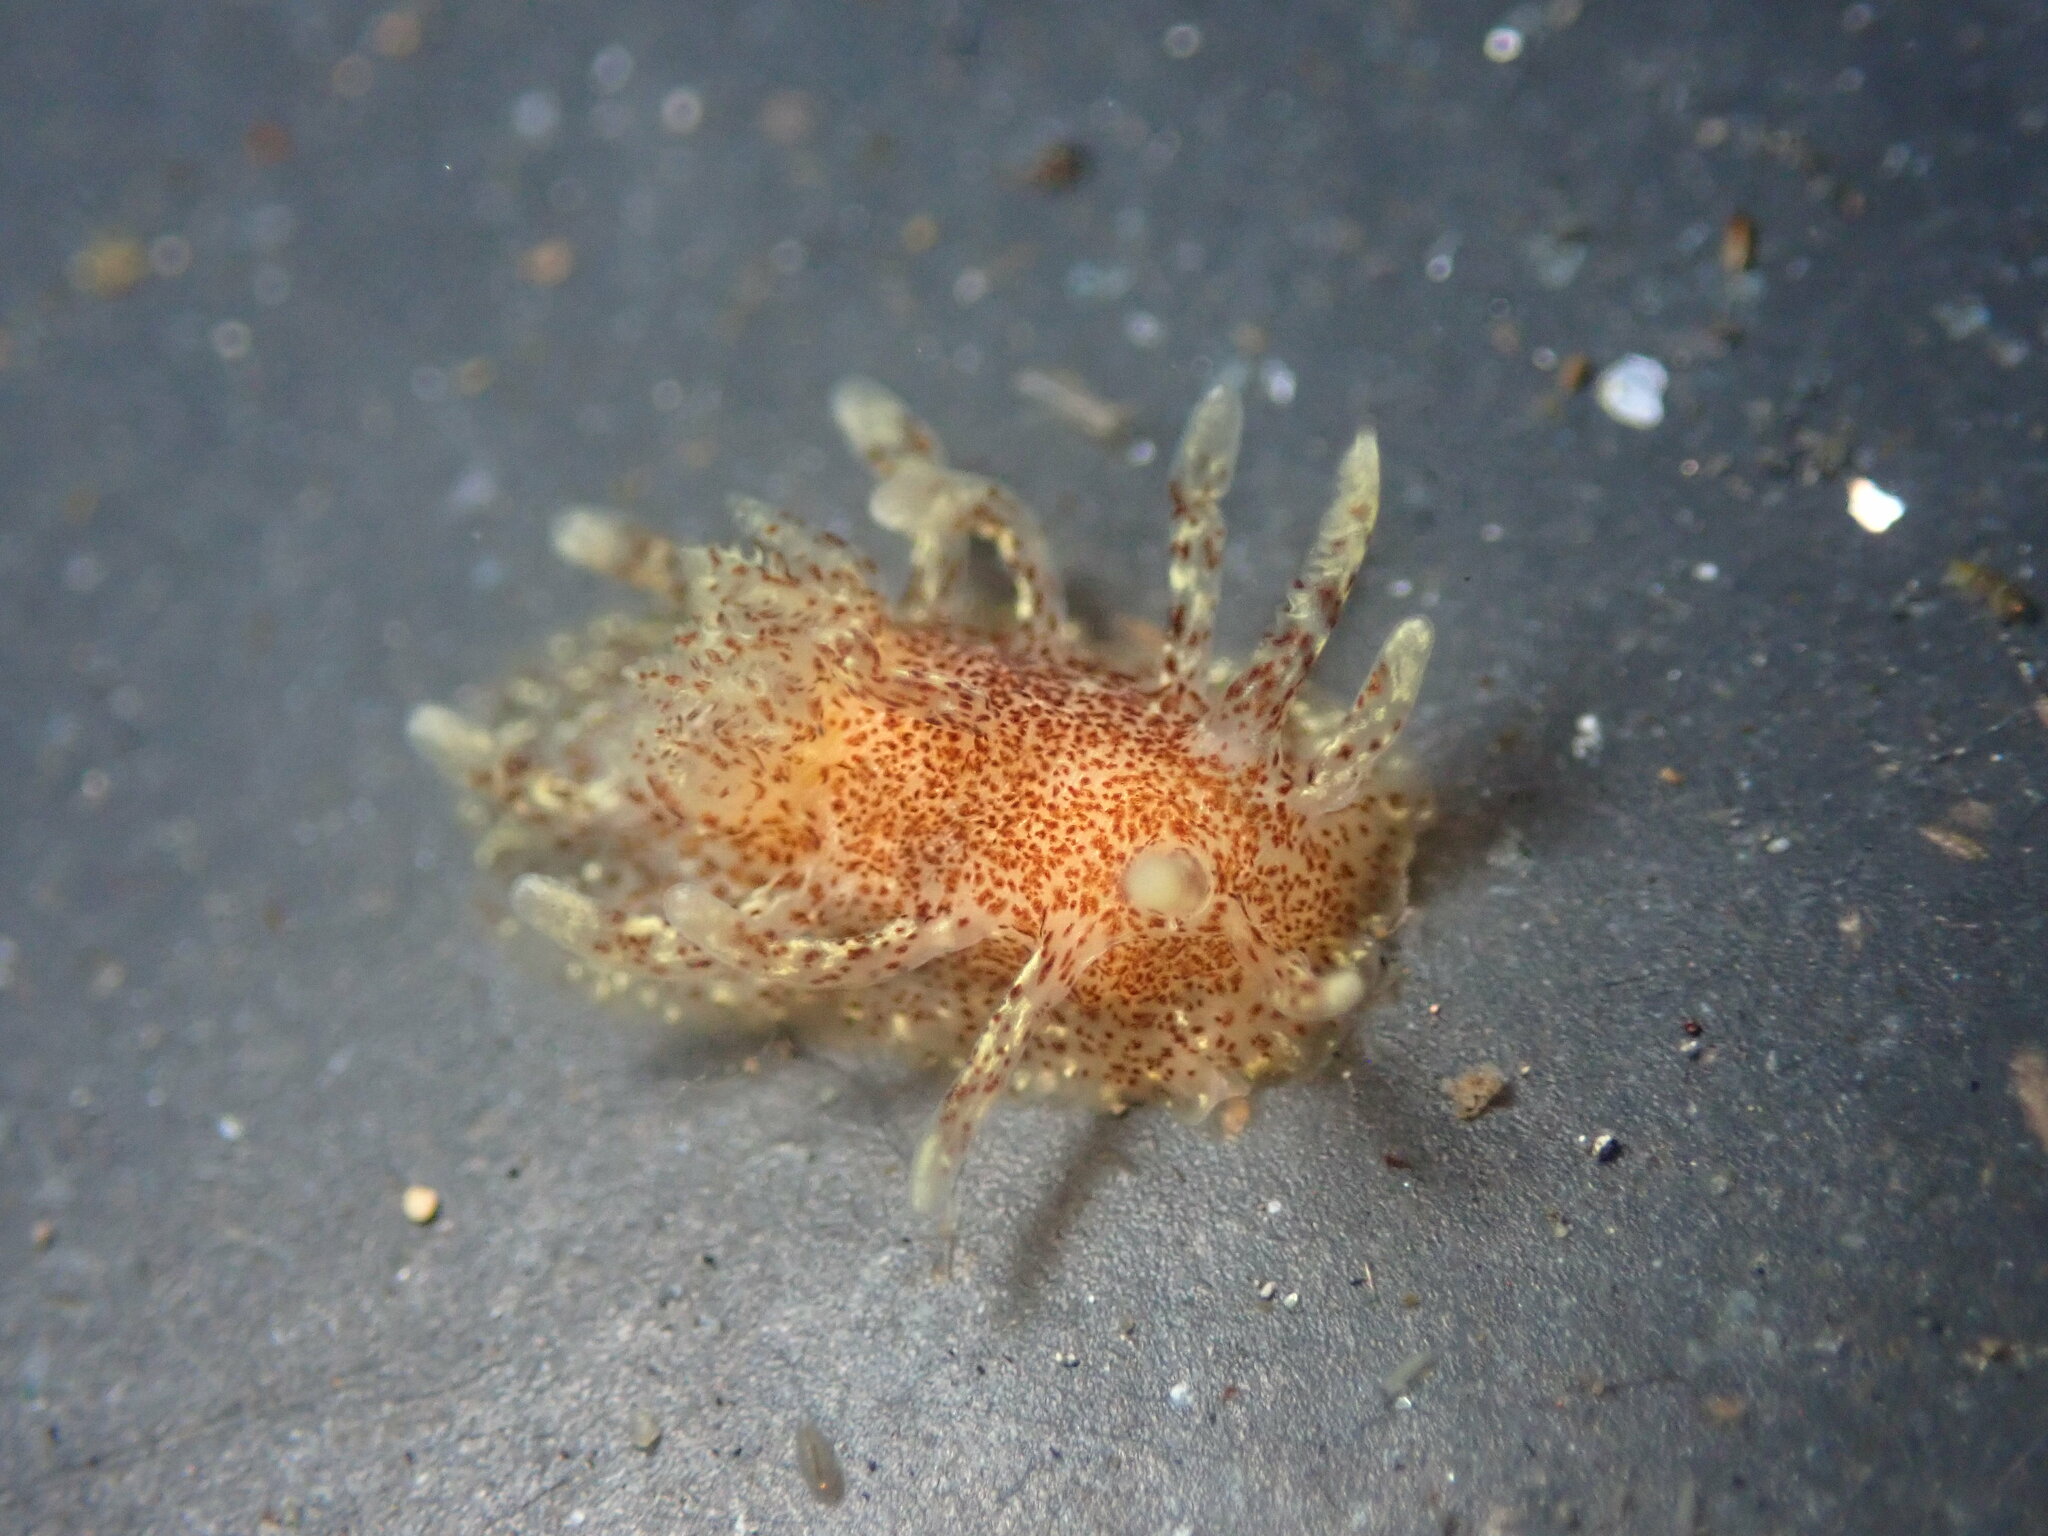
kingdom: Animalia
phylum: Mollusca
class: Gastropoda
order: Nudibranchia
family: Goniodorididae
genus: Okenia
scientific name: Okenia
